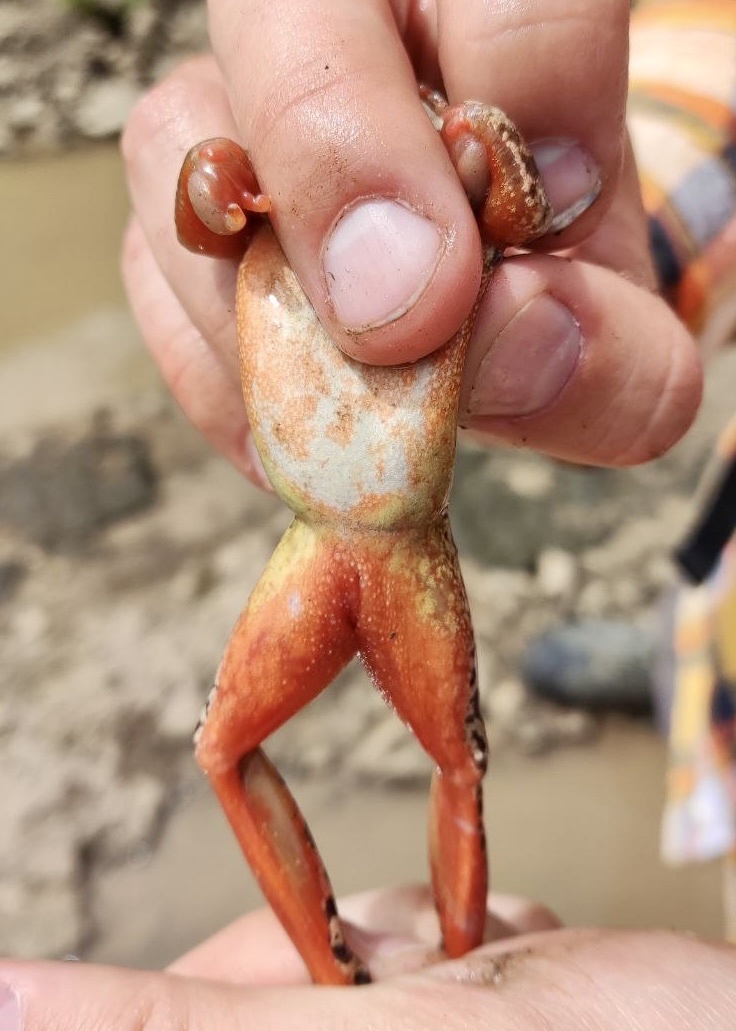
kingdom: Animalia
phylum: Chordata
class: Amphibia
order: Anura
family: Ranidae
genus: Rana
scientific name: Rana macrocnemis
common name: Banded frog
